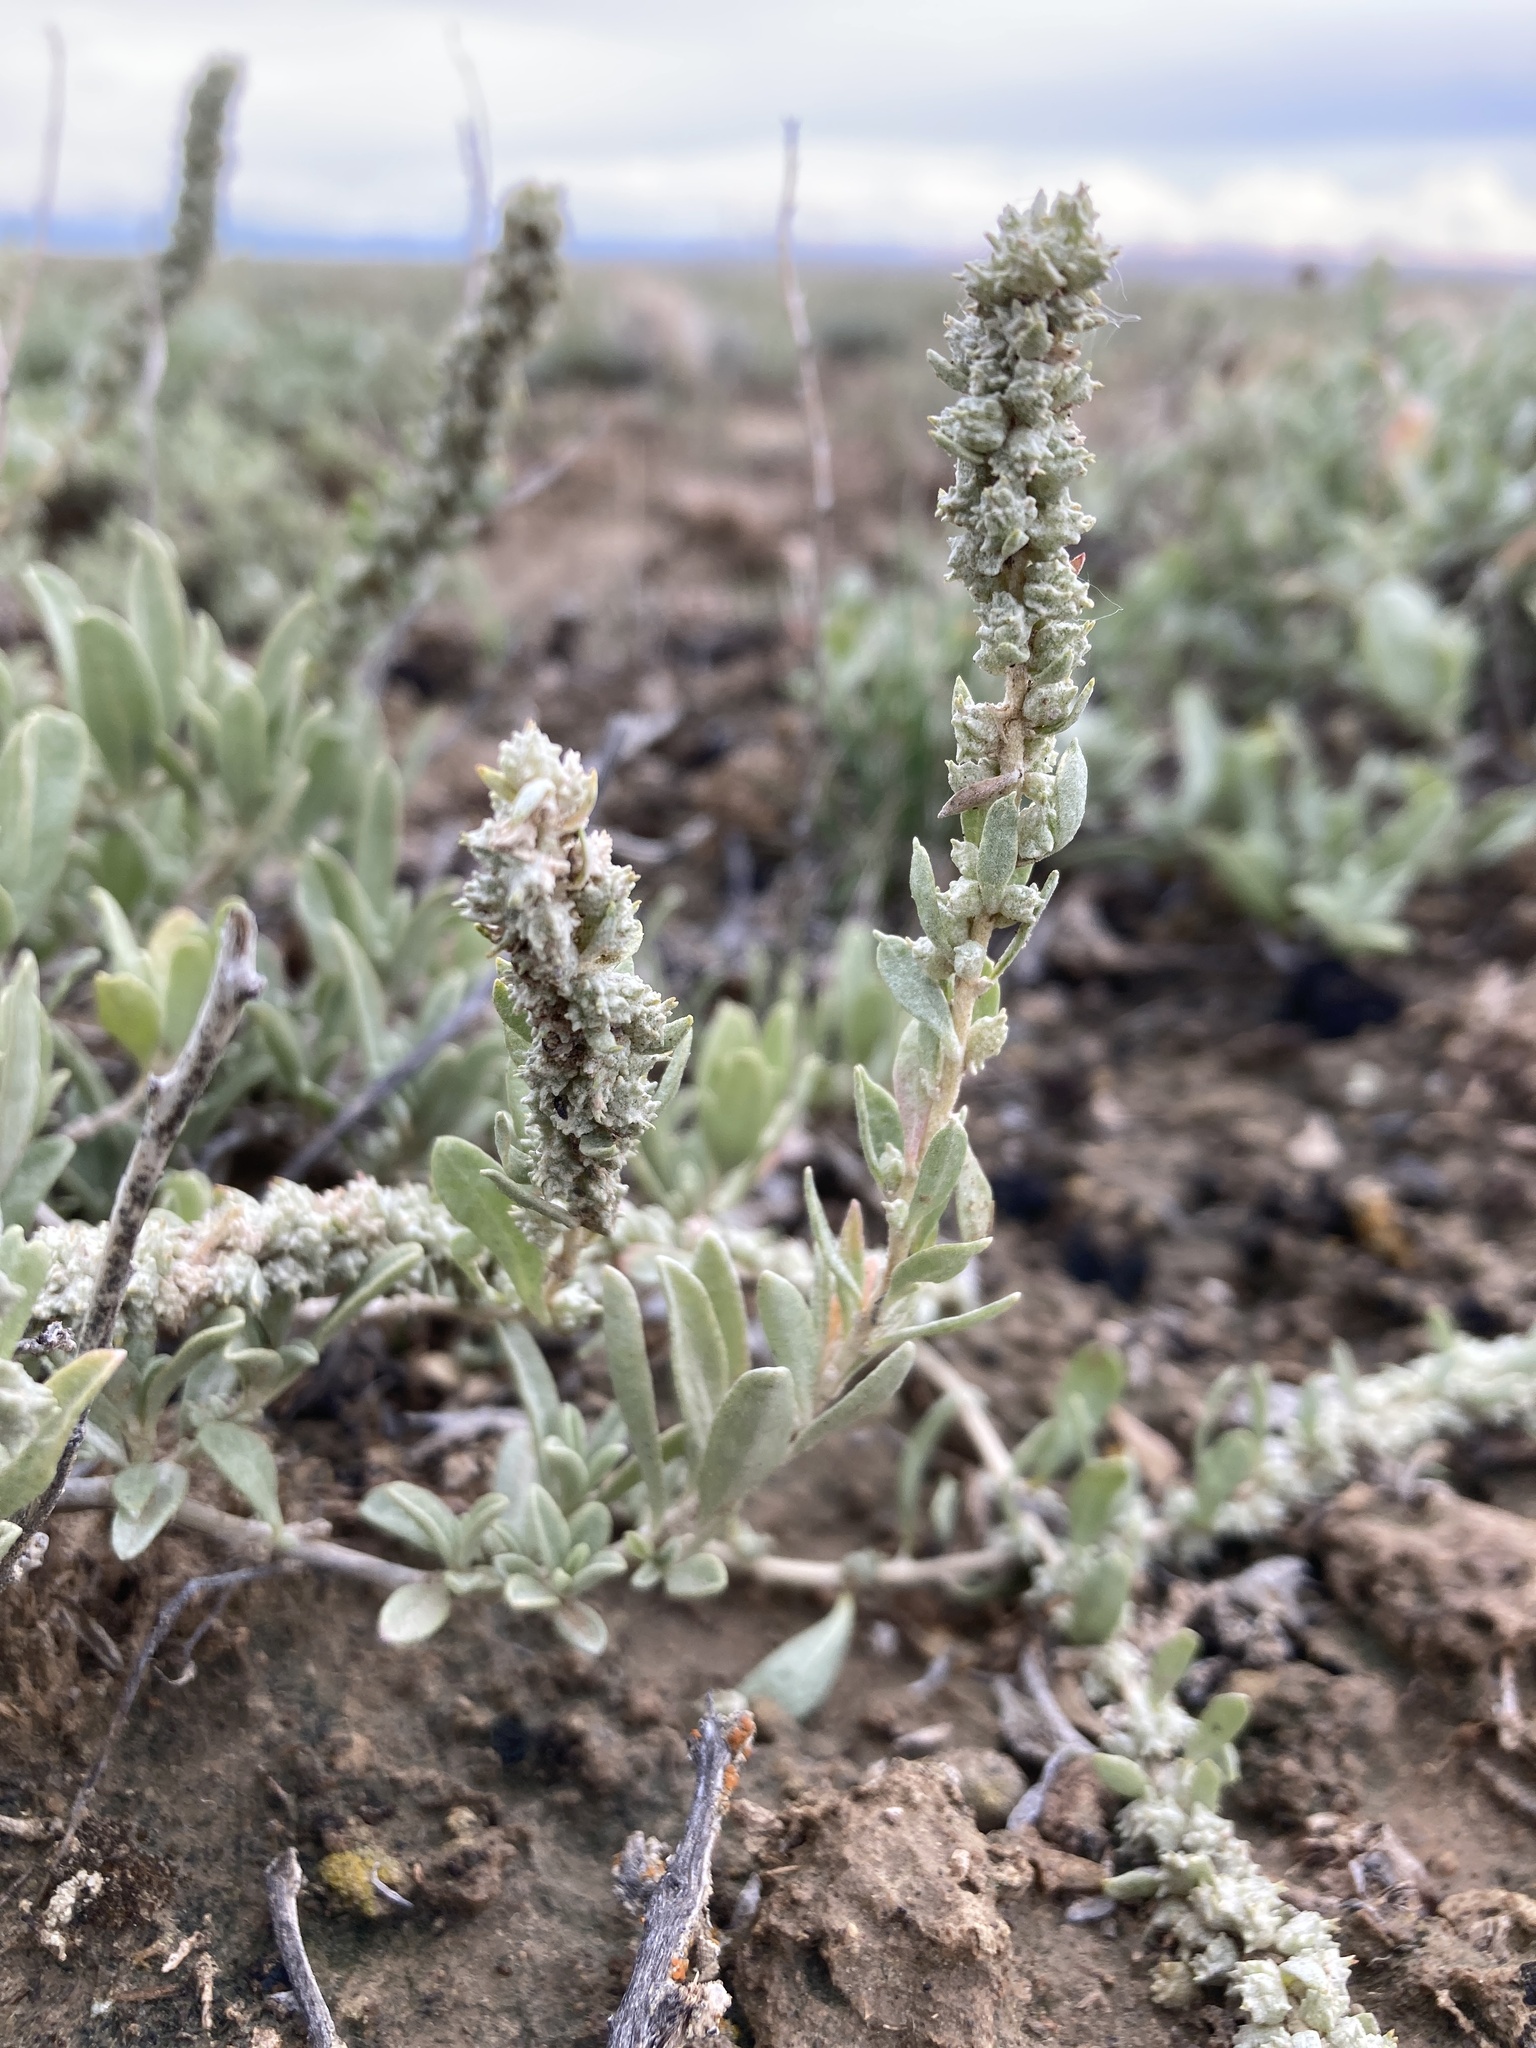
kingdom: Plantae
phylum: Tracheophyta
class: Magnoliopsida
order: Caryophyllales
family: Amaranthaceae
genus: Atriplex
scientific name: Atriplex gardneri
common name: Gardner's orache
